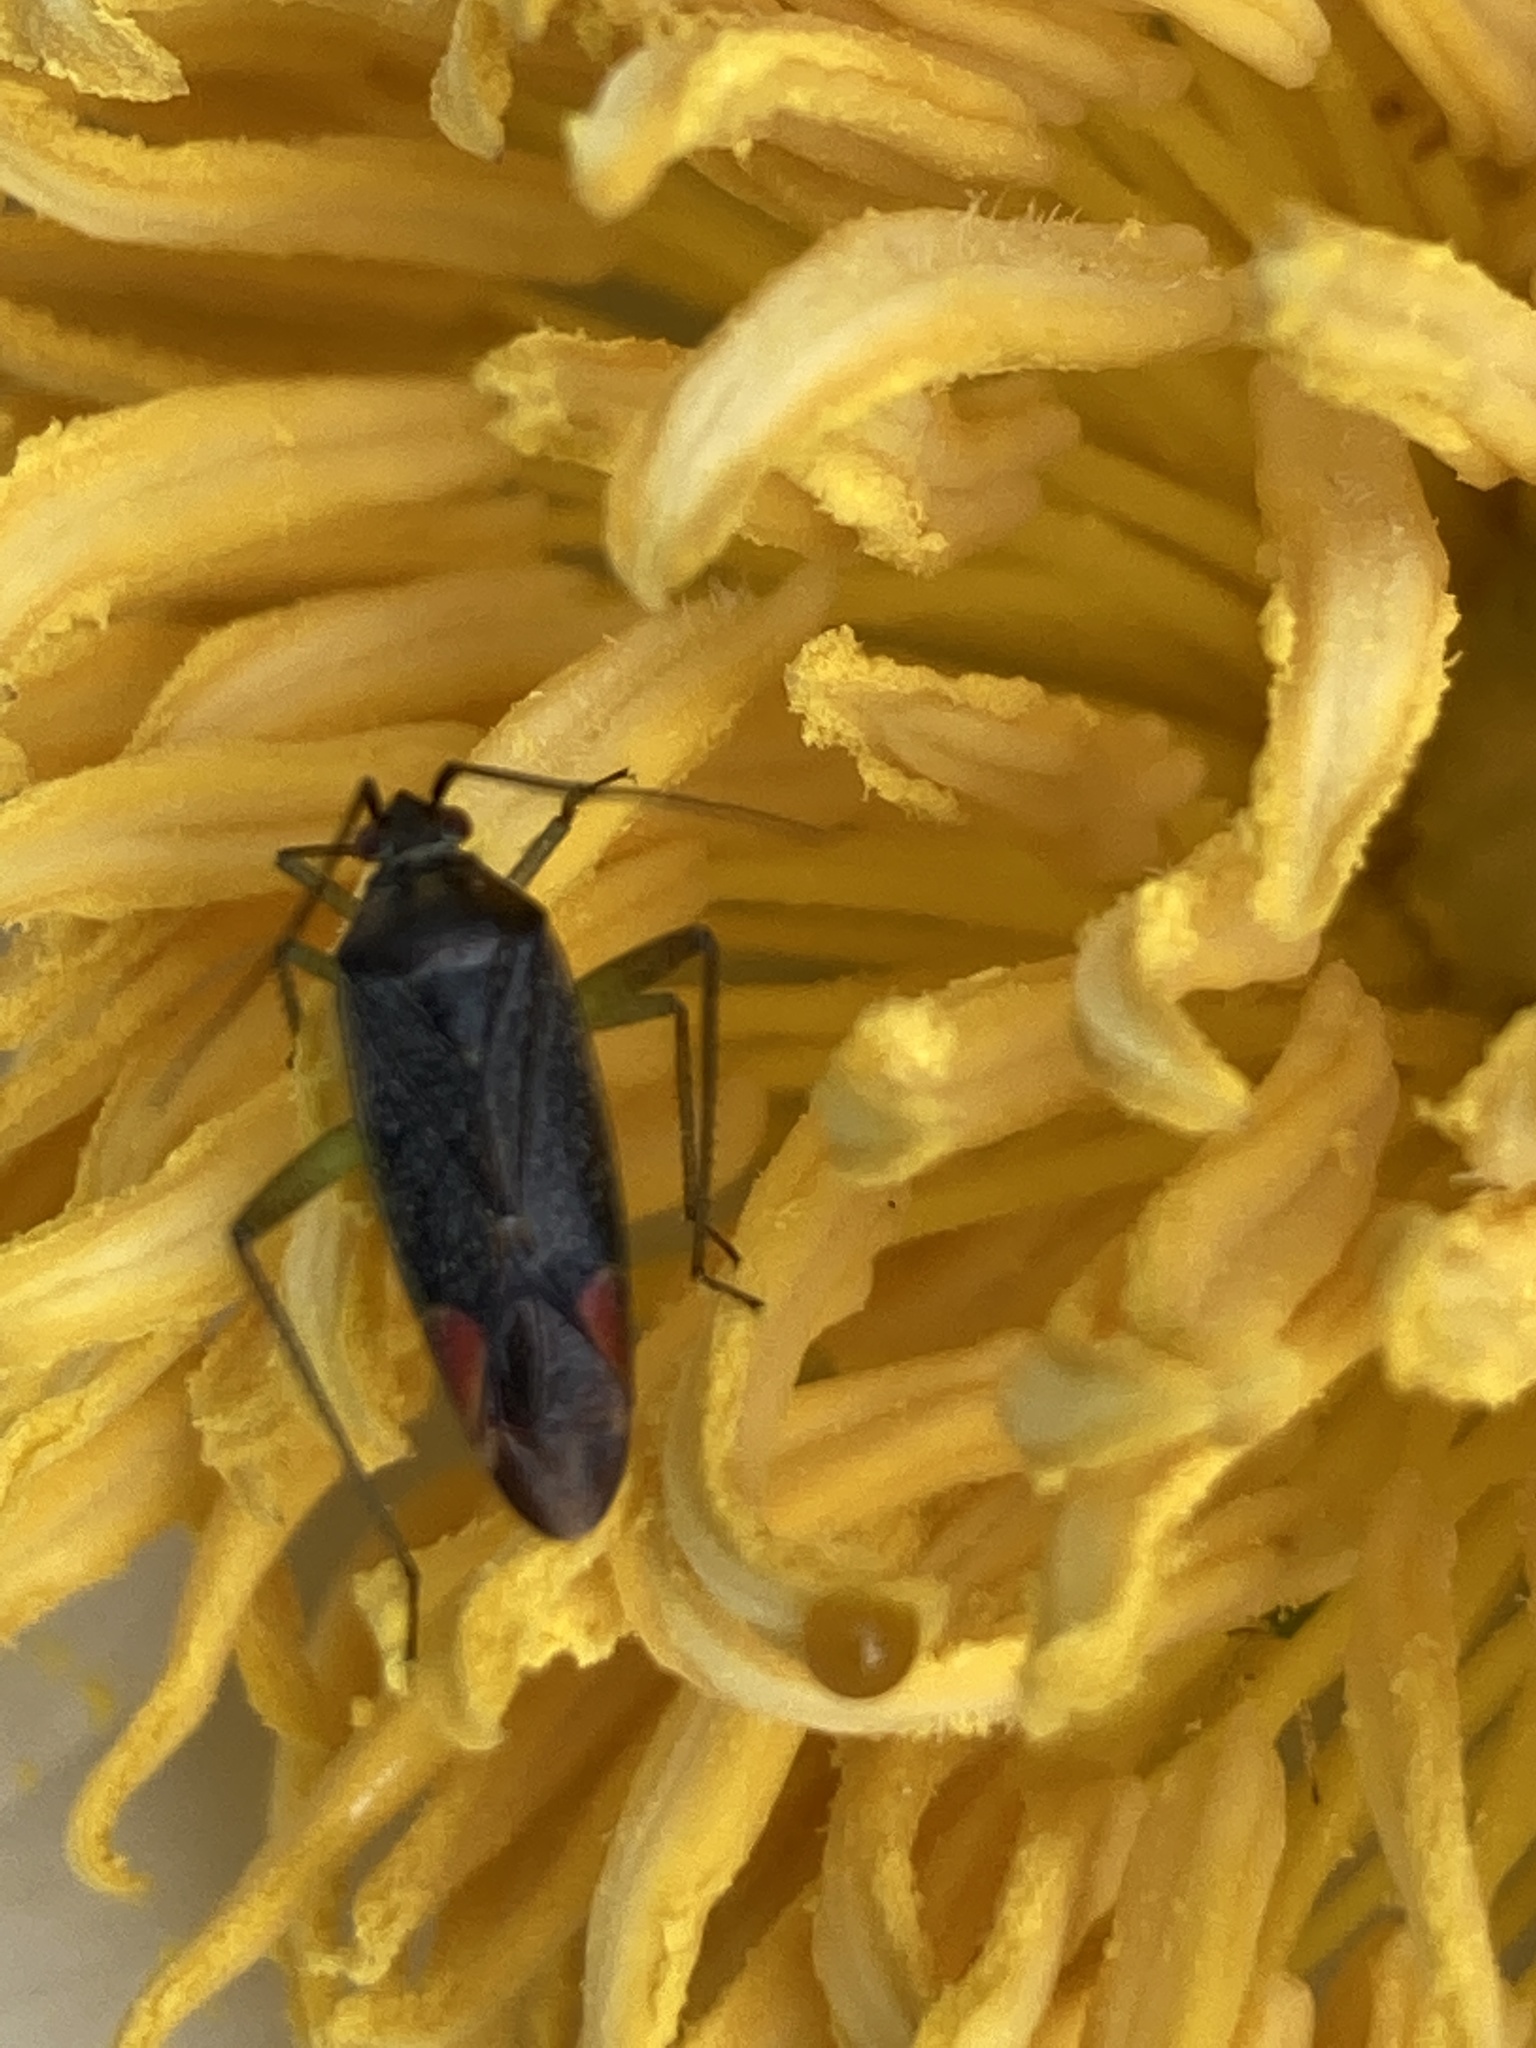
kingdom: Animalia
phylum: Arthropoda
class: Insecta
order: Hemiptera
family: Miridae
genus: Closterotomus
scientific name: Closterotomus trivialis
